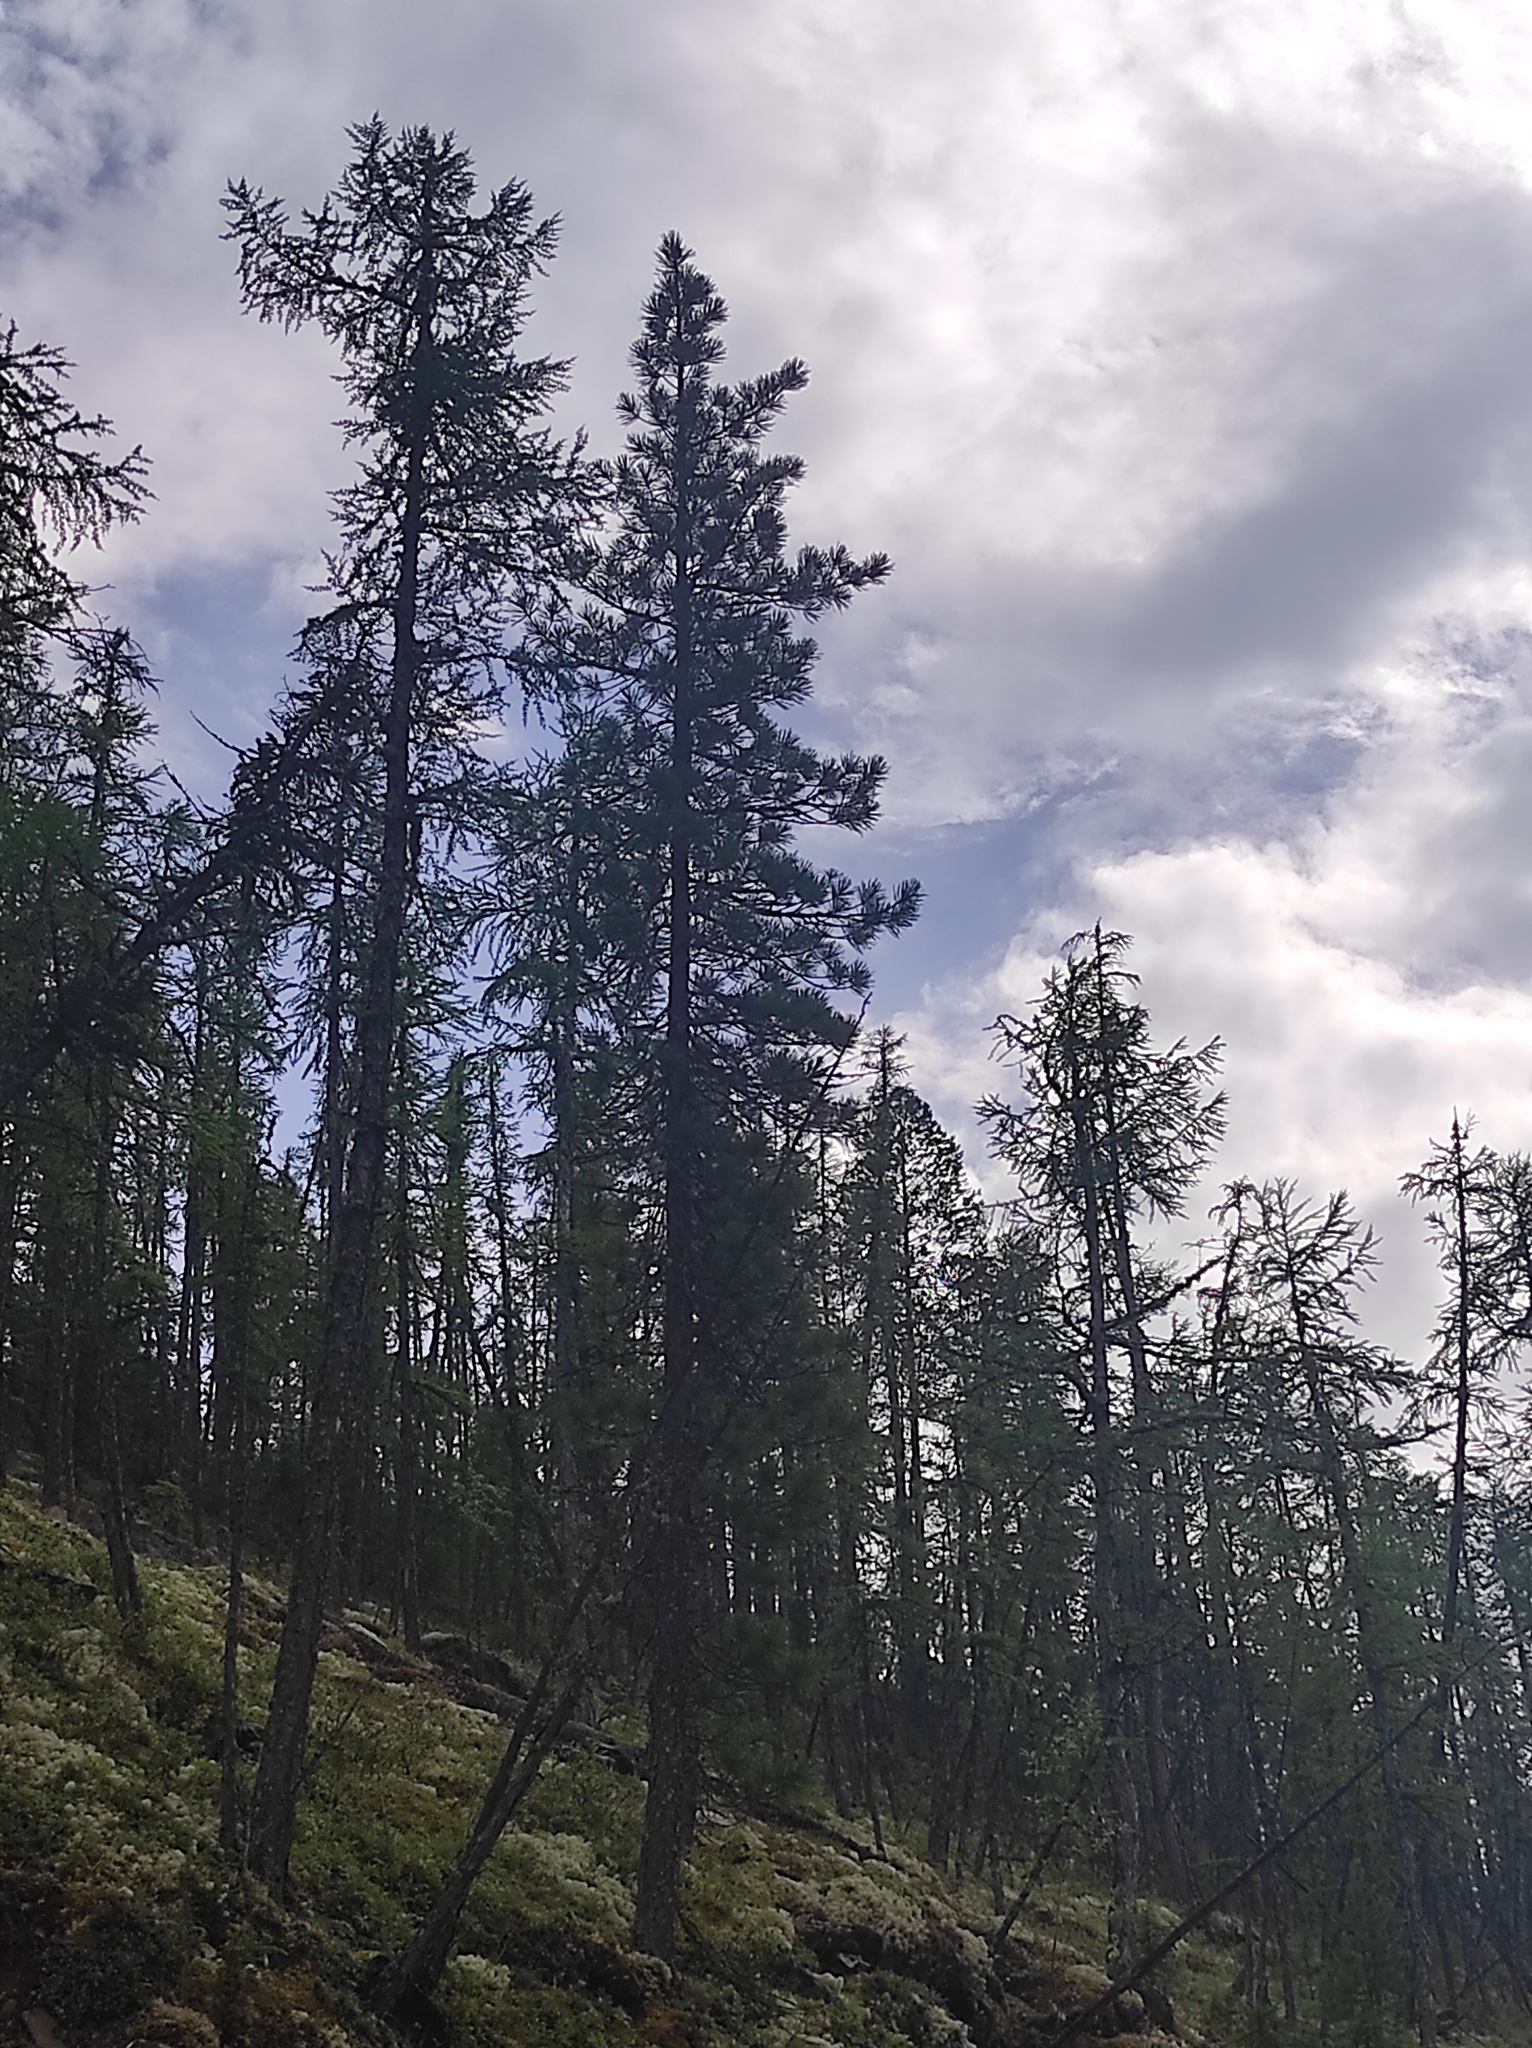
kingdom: Plantae
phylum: Tracheophyta
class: Pinopsida
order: Pinales
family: Pinaceae
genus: Pinus
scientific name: Pinus sibirica
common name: Siberian pine
